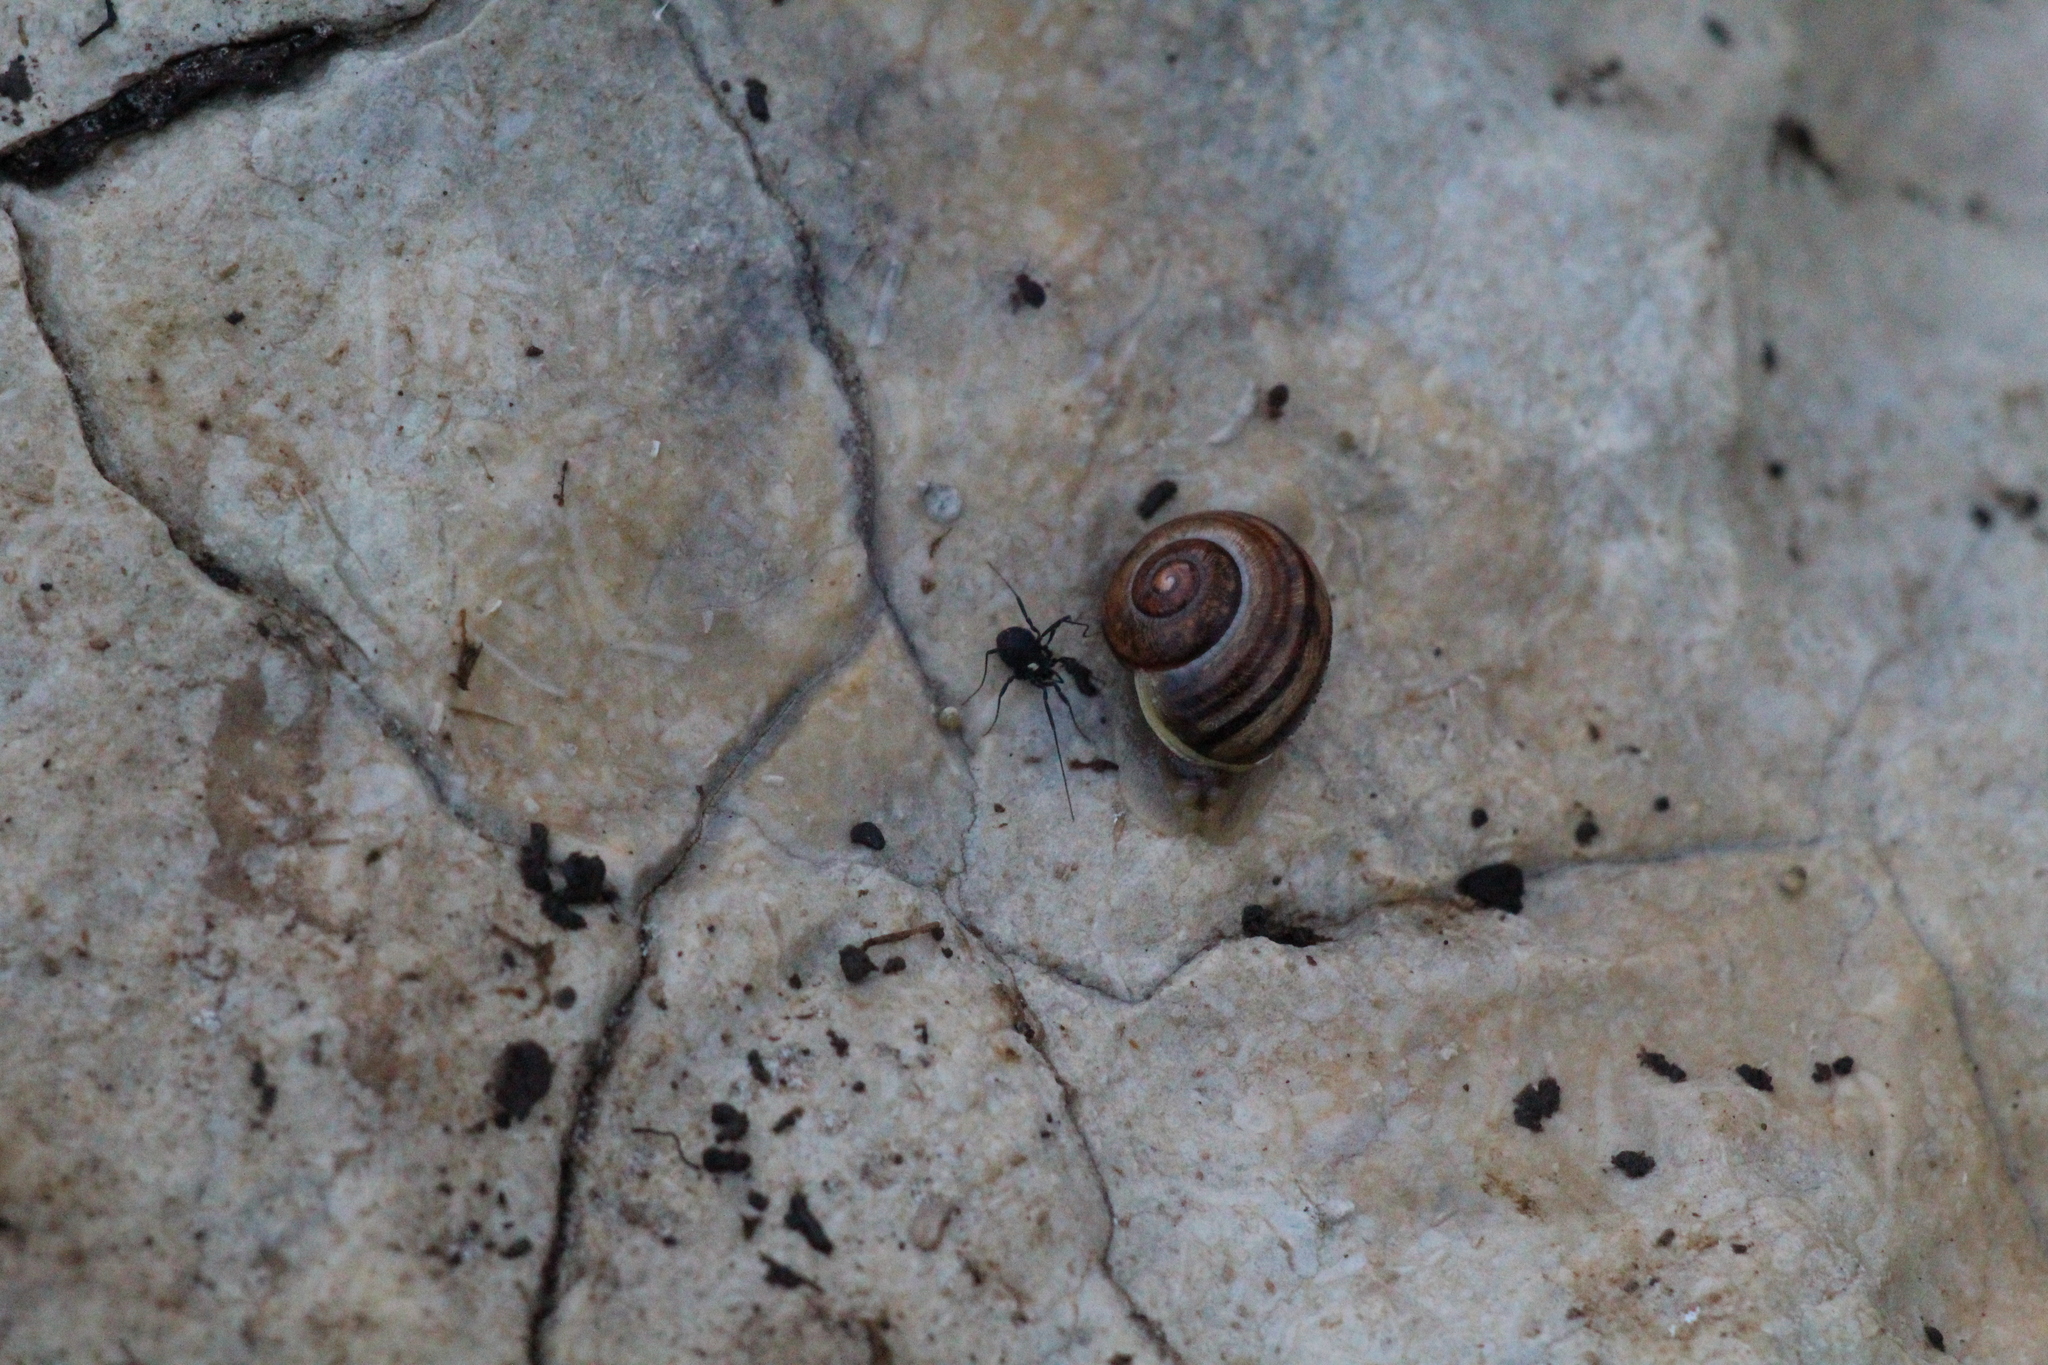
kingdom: Animalia
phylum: Arthropoda
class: Arachnida
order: Opiliones
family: Nemastomatidae
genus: Nemastoma
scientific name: Nemastoma bimaculatum
